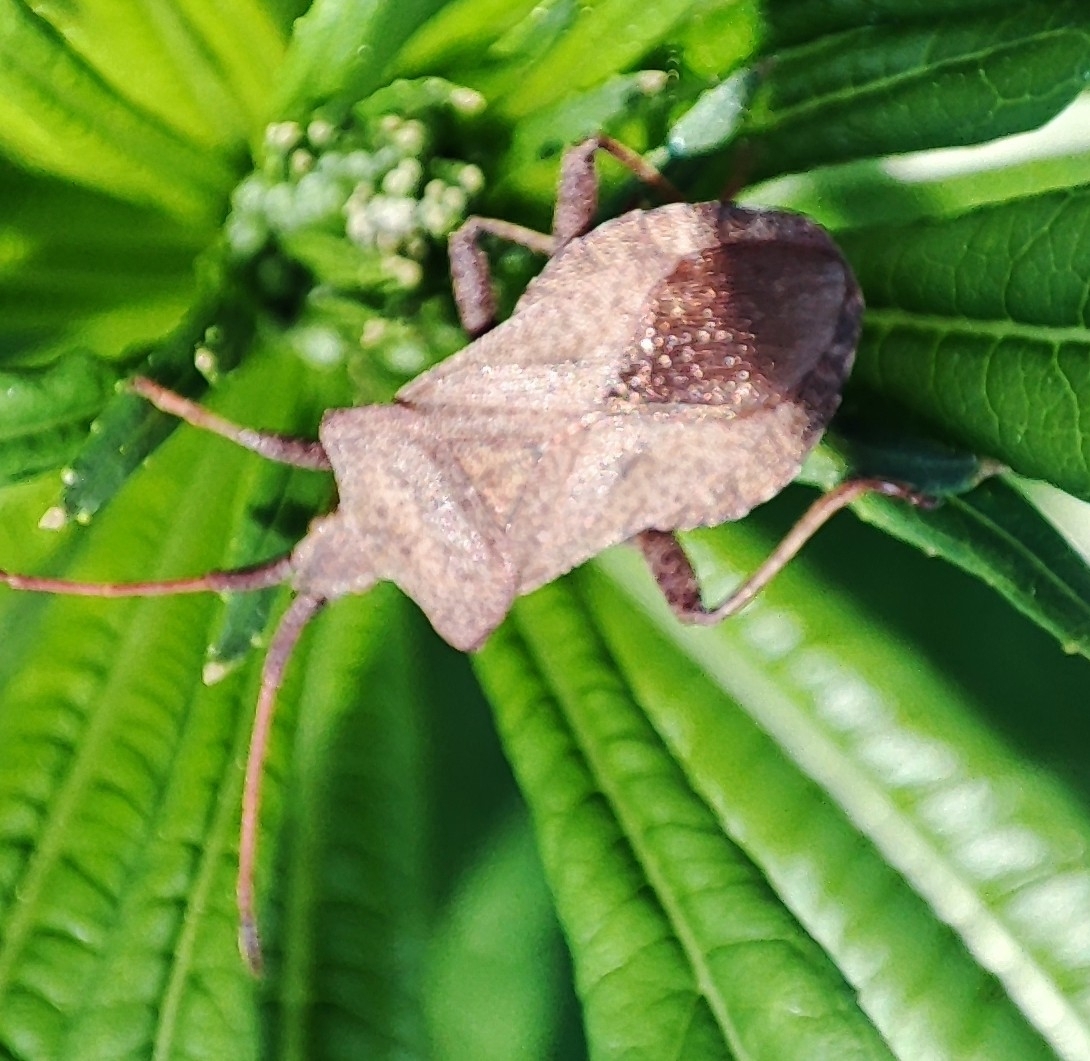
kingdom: Animalia
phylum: Arthropoda
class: Insecta
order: Hemiptera
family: Coreidae
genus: Coreus
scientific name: Coreus marginatus
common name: Dock bug
